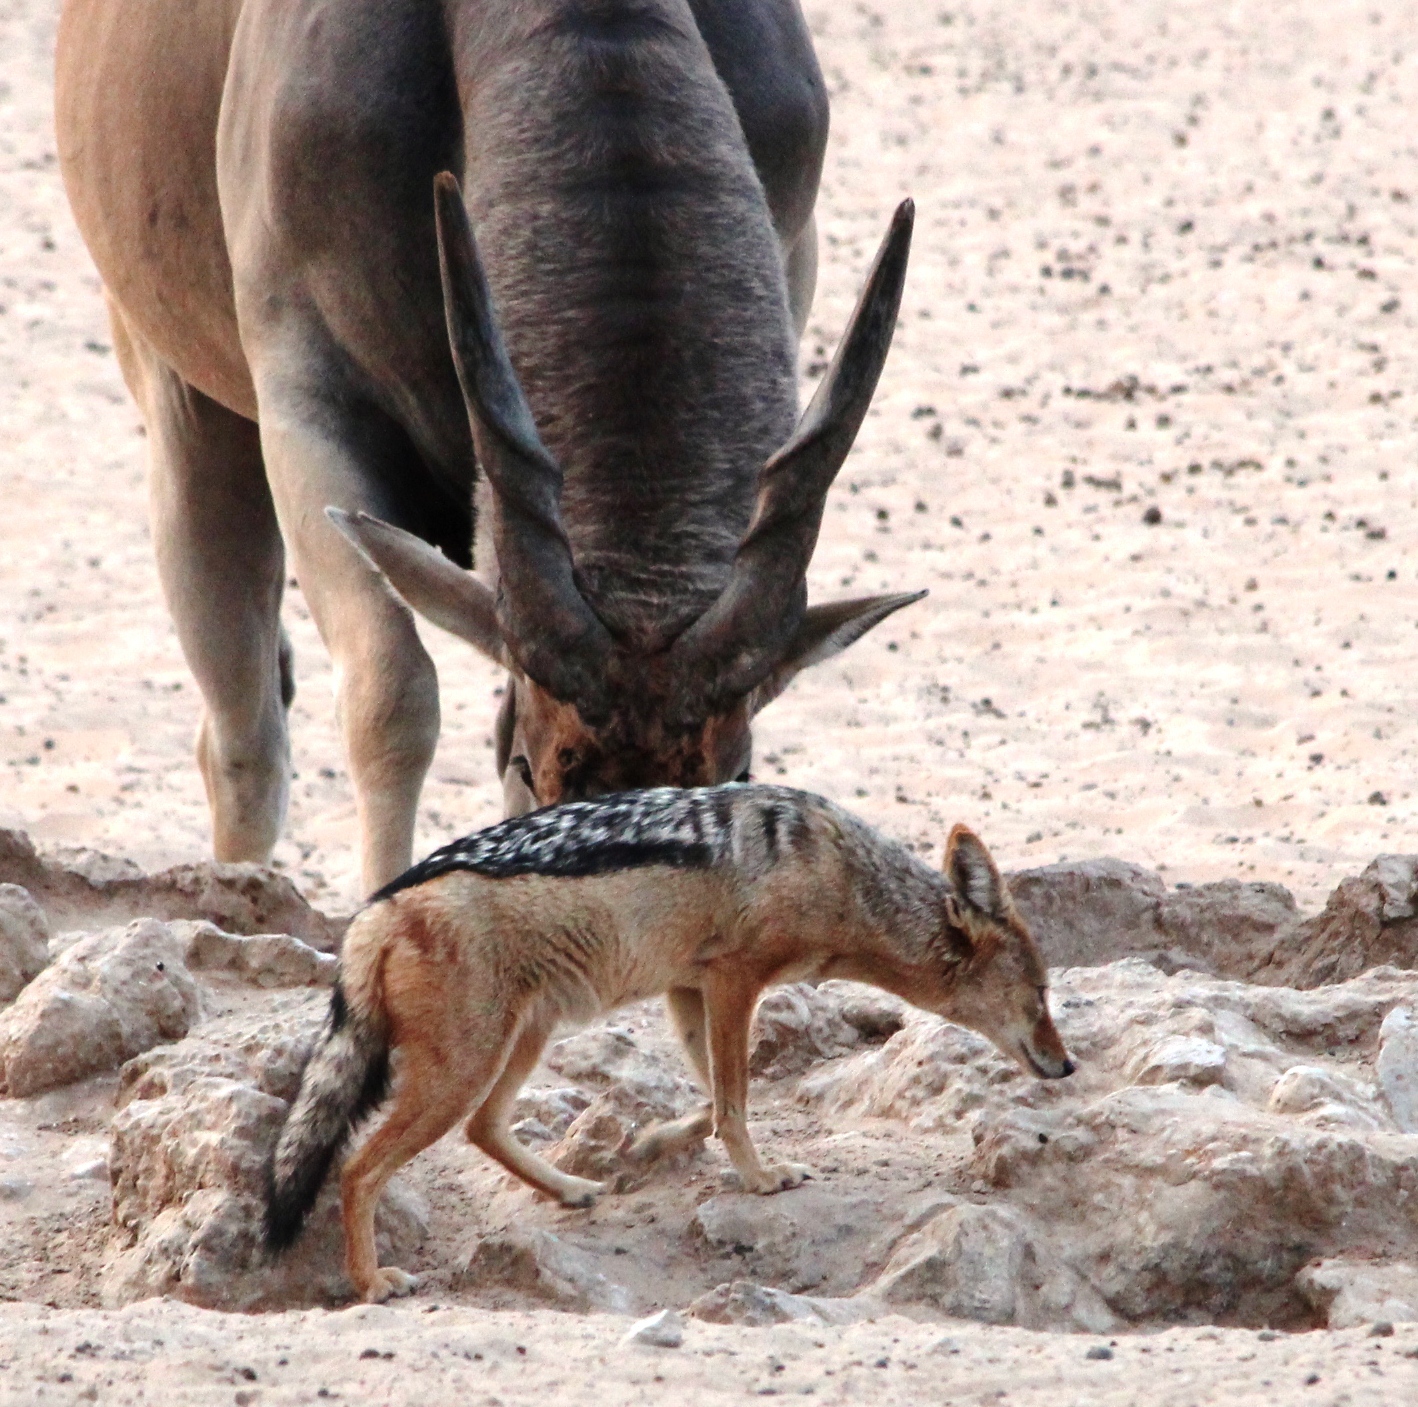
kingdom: Animalia
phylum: Chordata
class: Mammalia
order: Carnivora
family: Canidae
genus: Lupulella
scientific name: Lupulella
